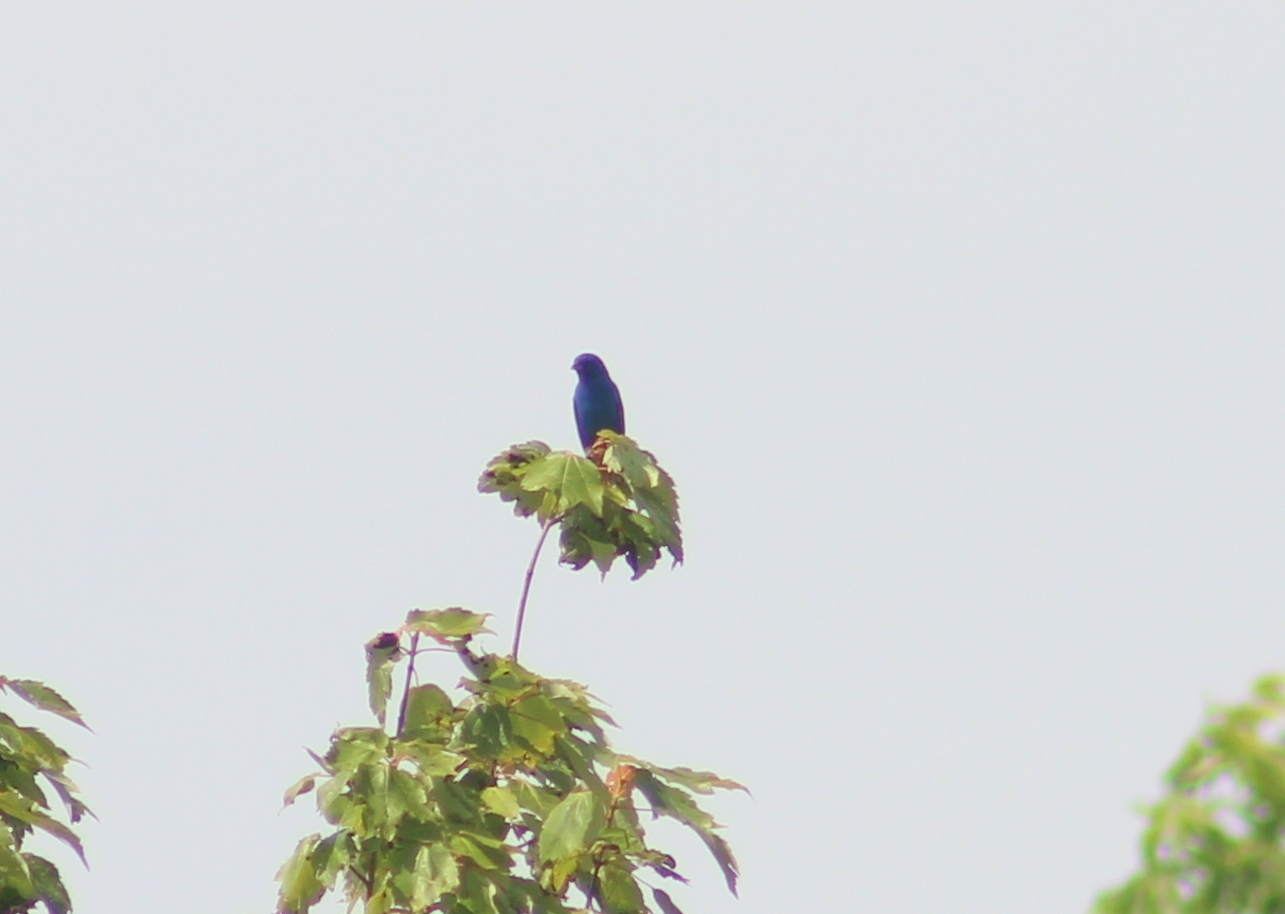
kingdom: Animalia
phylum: Chordata
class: Aves
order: Passeriformes
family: Cardinalidae
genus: Passerina
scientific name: Passerina cyanea
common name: Indigo bunting
